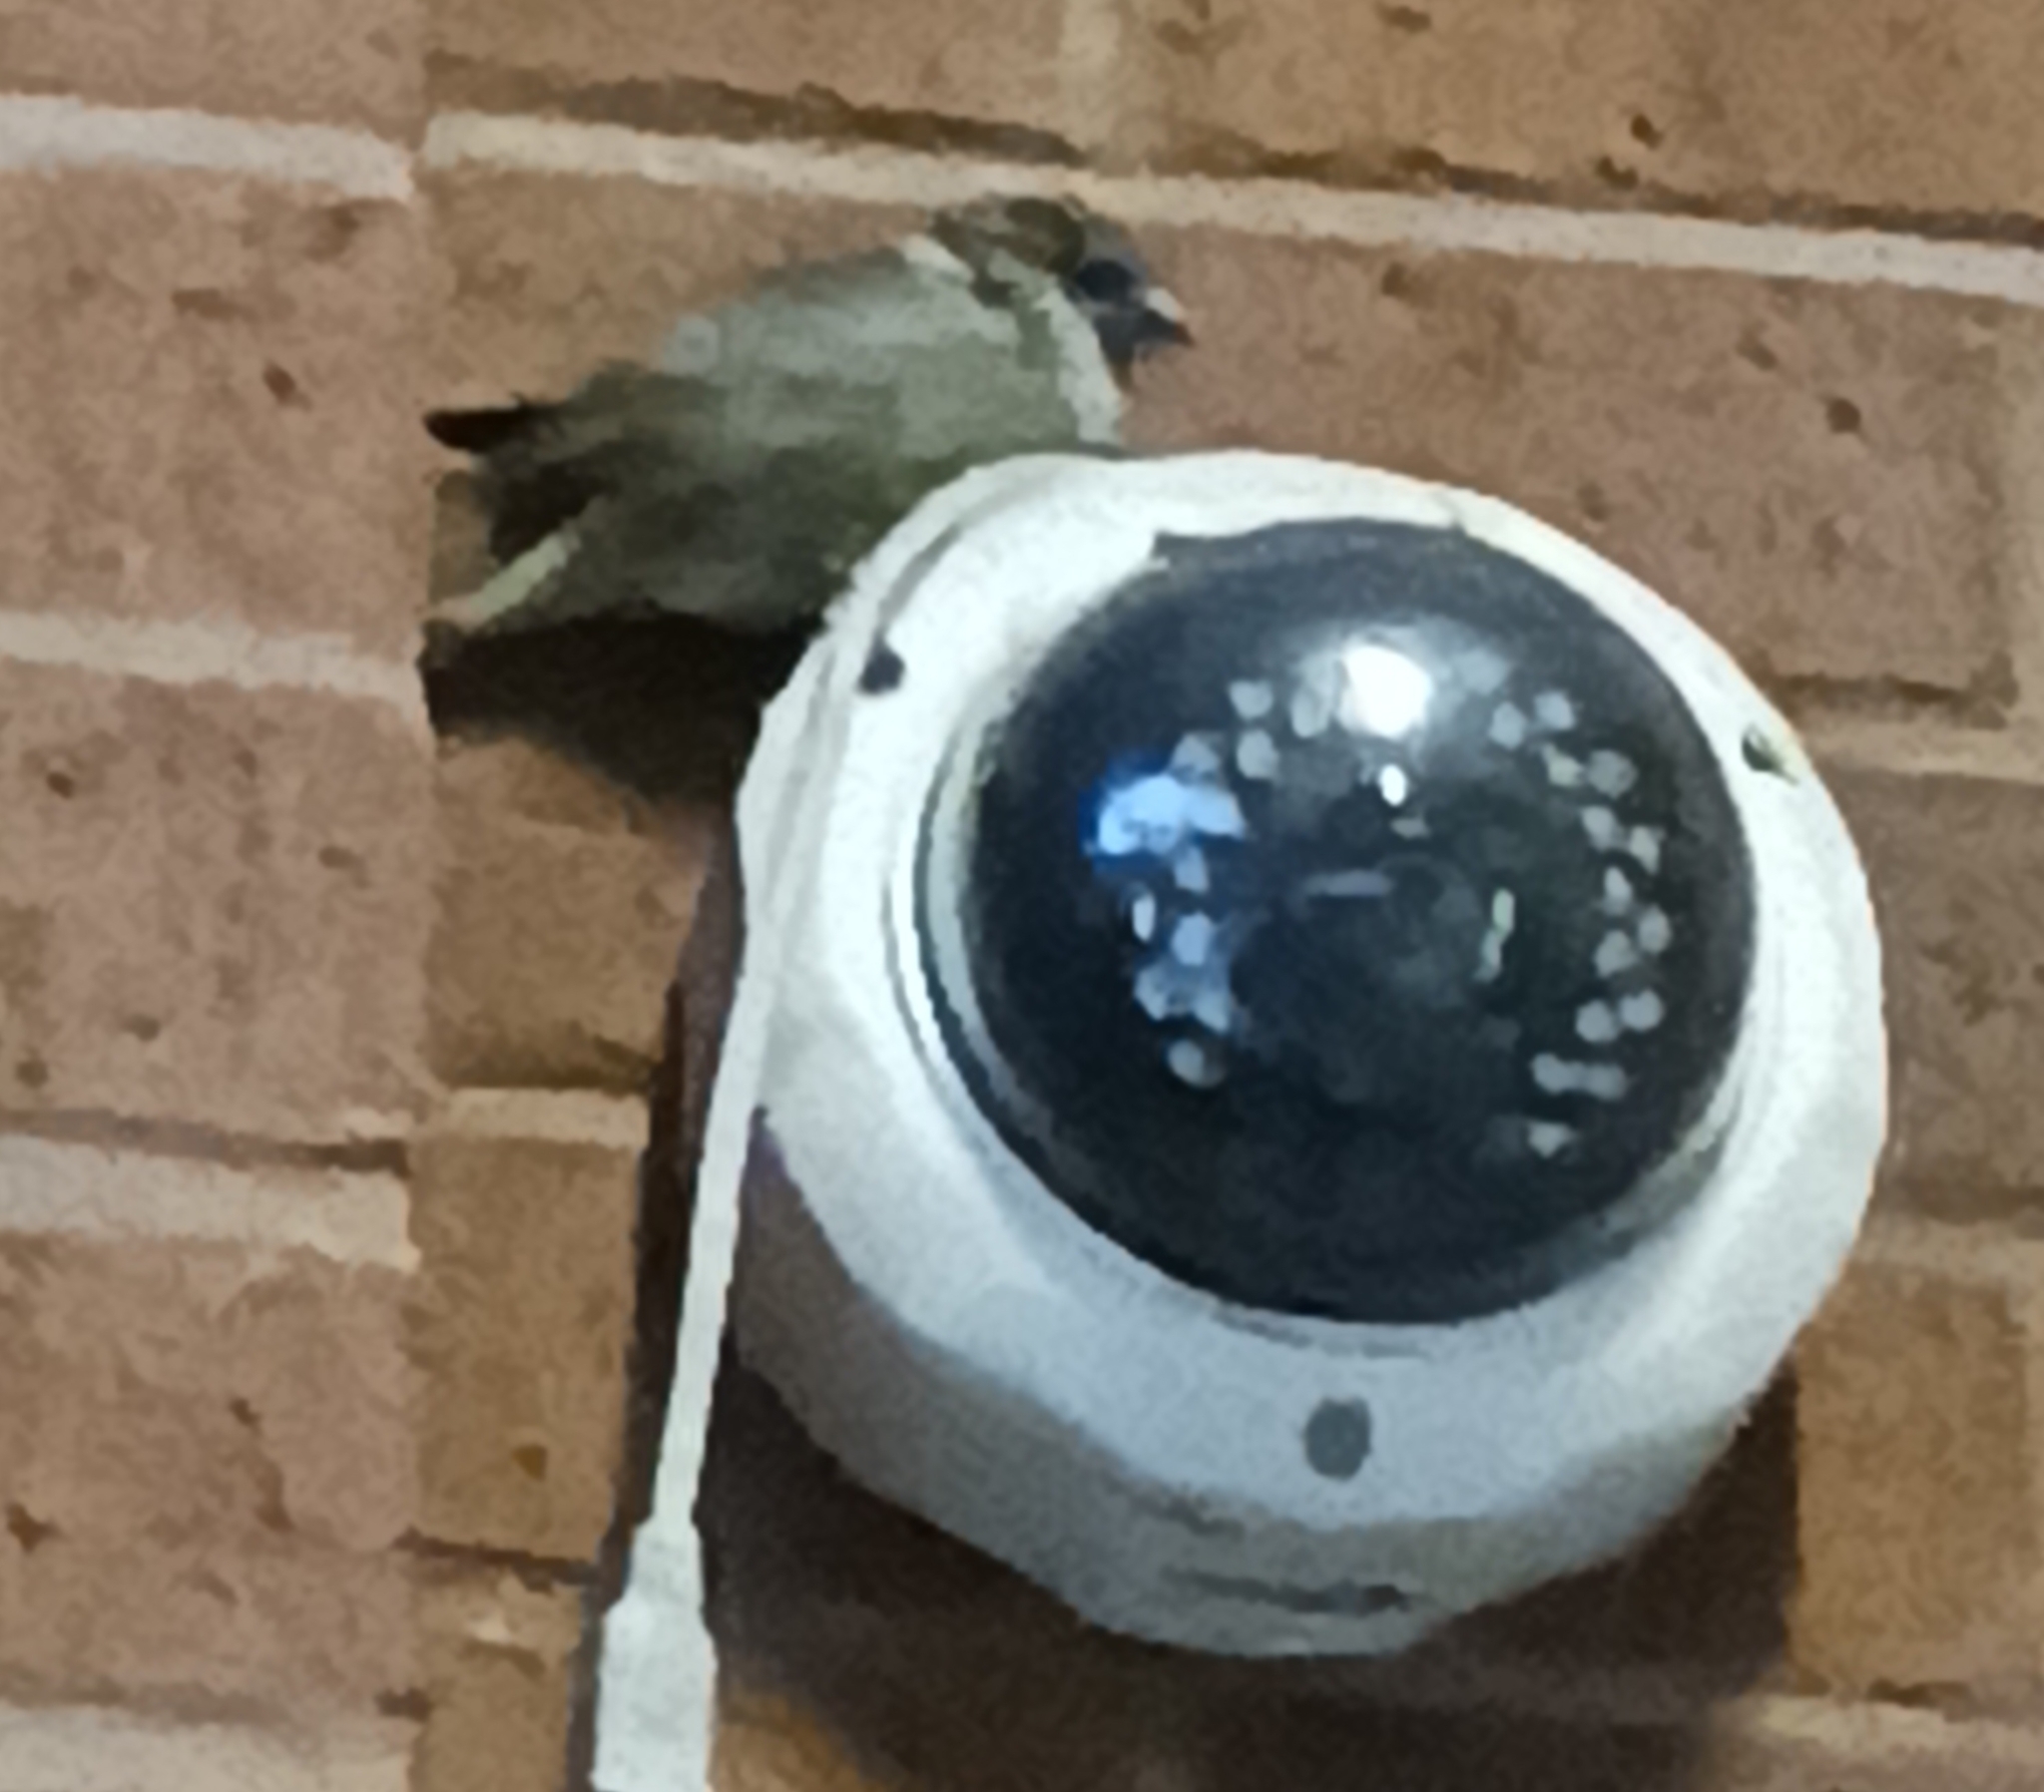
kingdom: Animalia
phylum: Chordata
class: Aves
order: Passeriformes
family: Passeridae
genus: Passer
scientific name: Passer domesticus
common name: House sparrow
